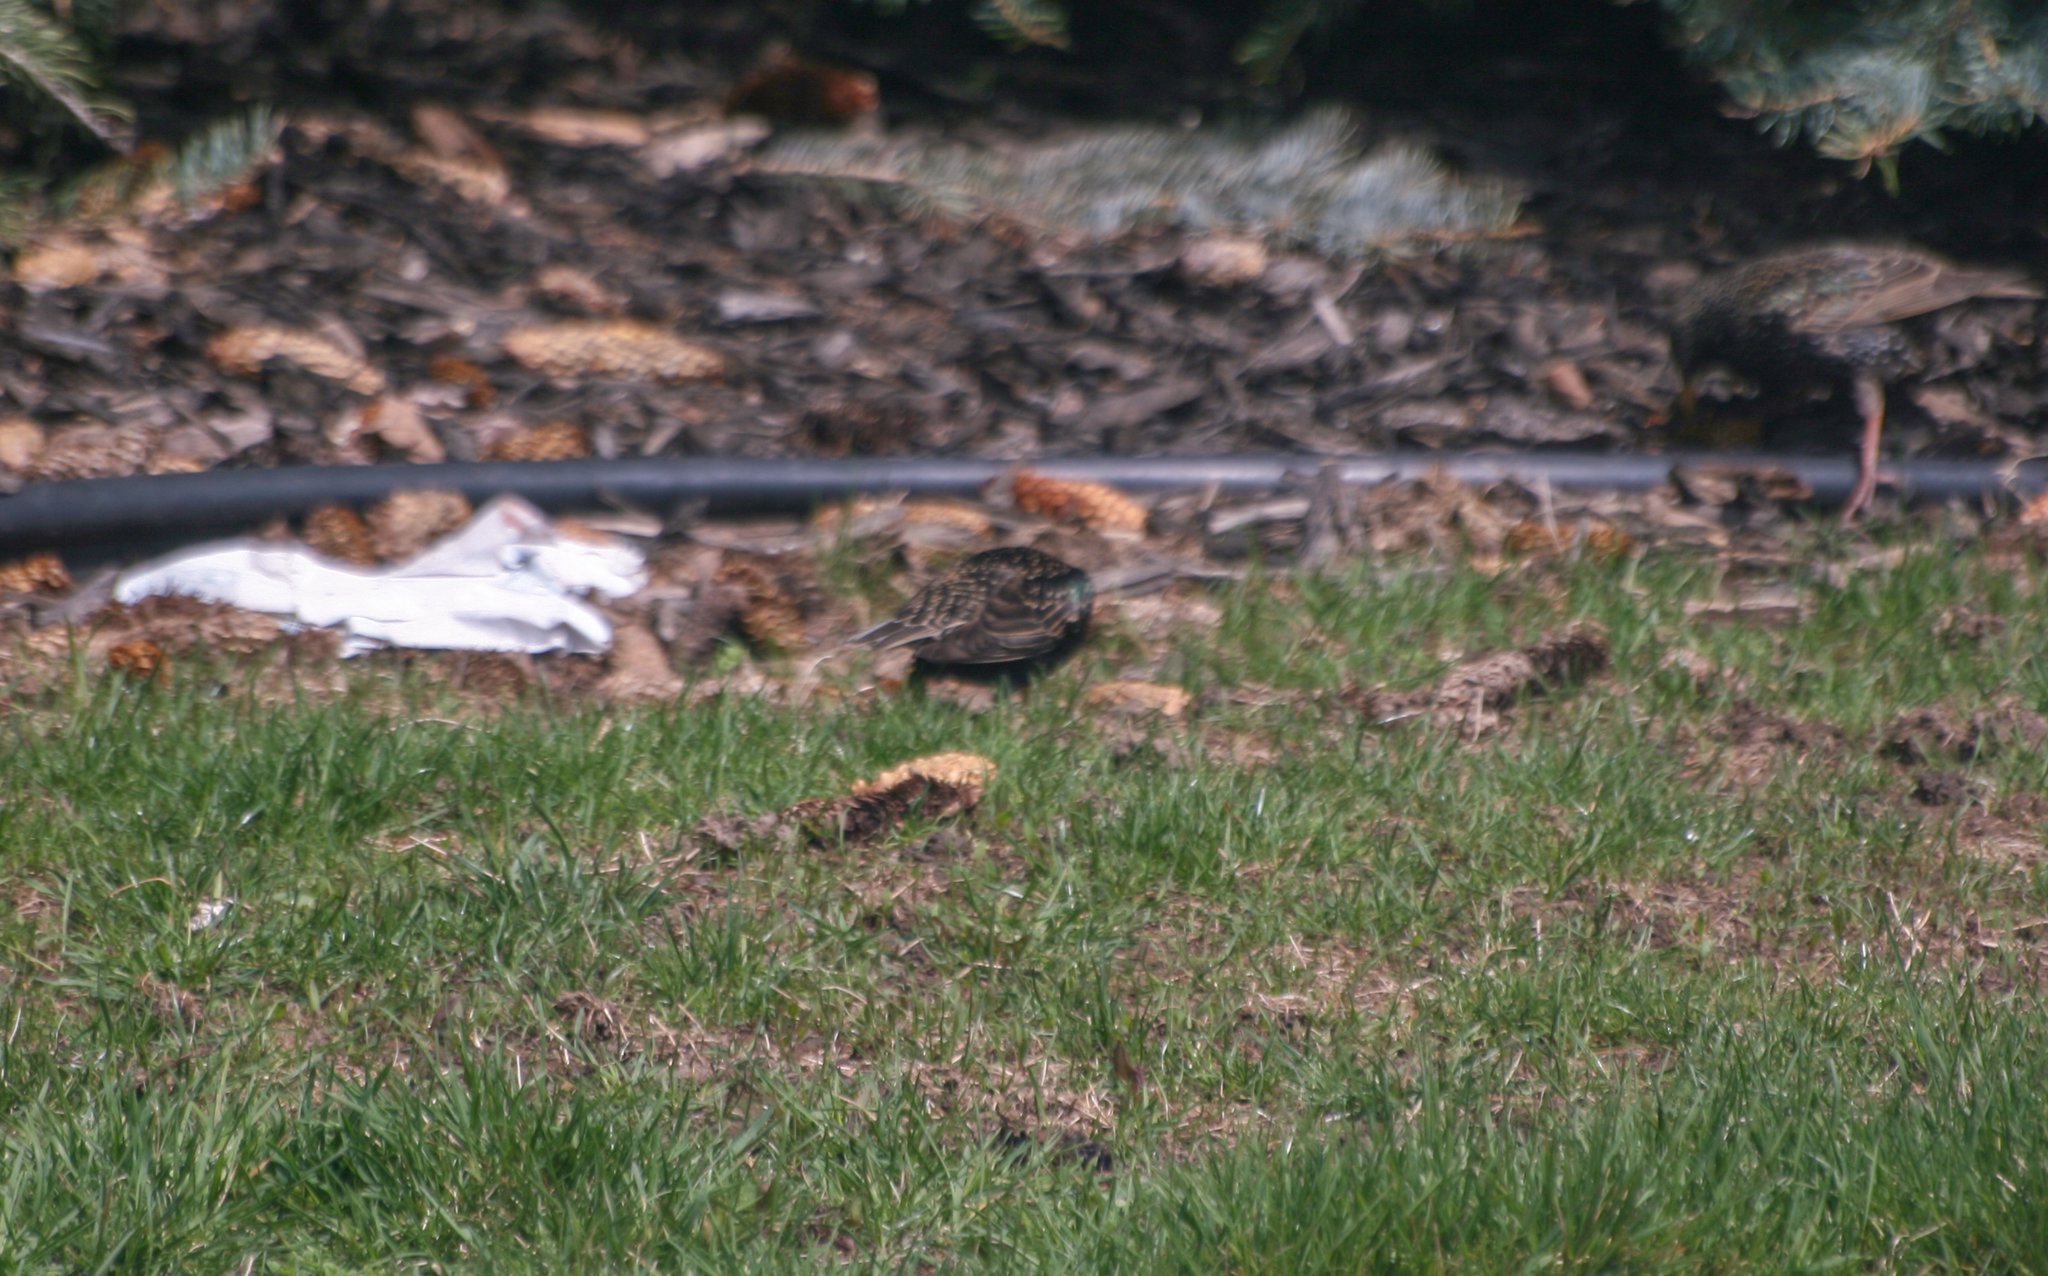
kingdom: Animalia
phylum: Chordata
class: Aves
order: Passeriformes
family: Sturnidae
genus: Sturnus
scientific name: Sturnus vulgaris
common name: Common starling
